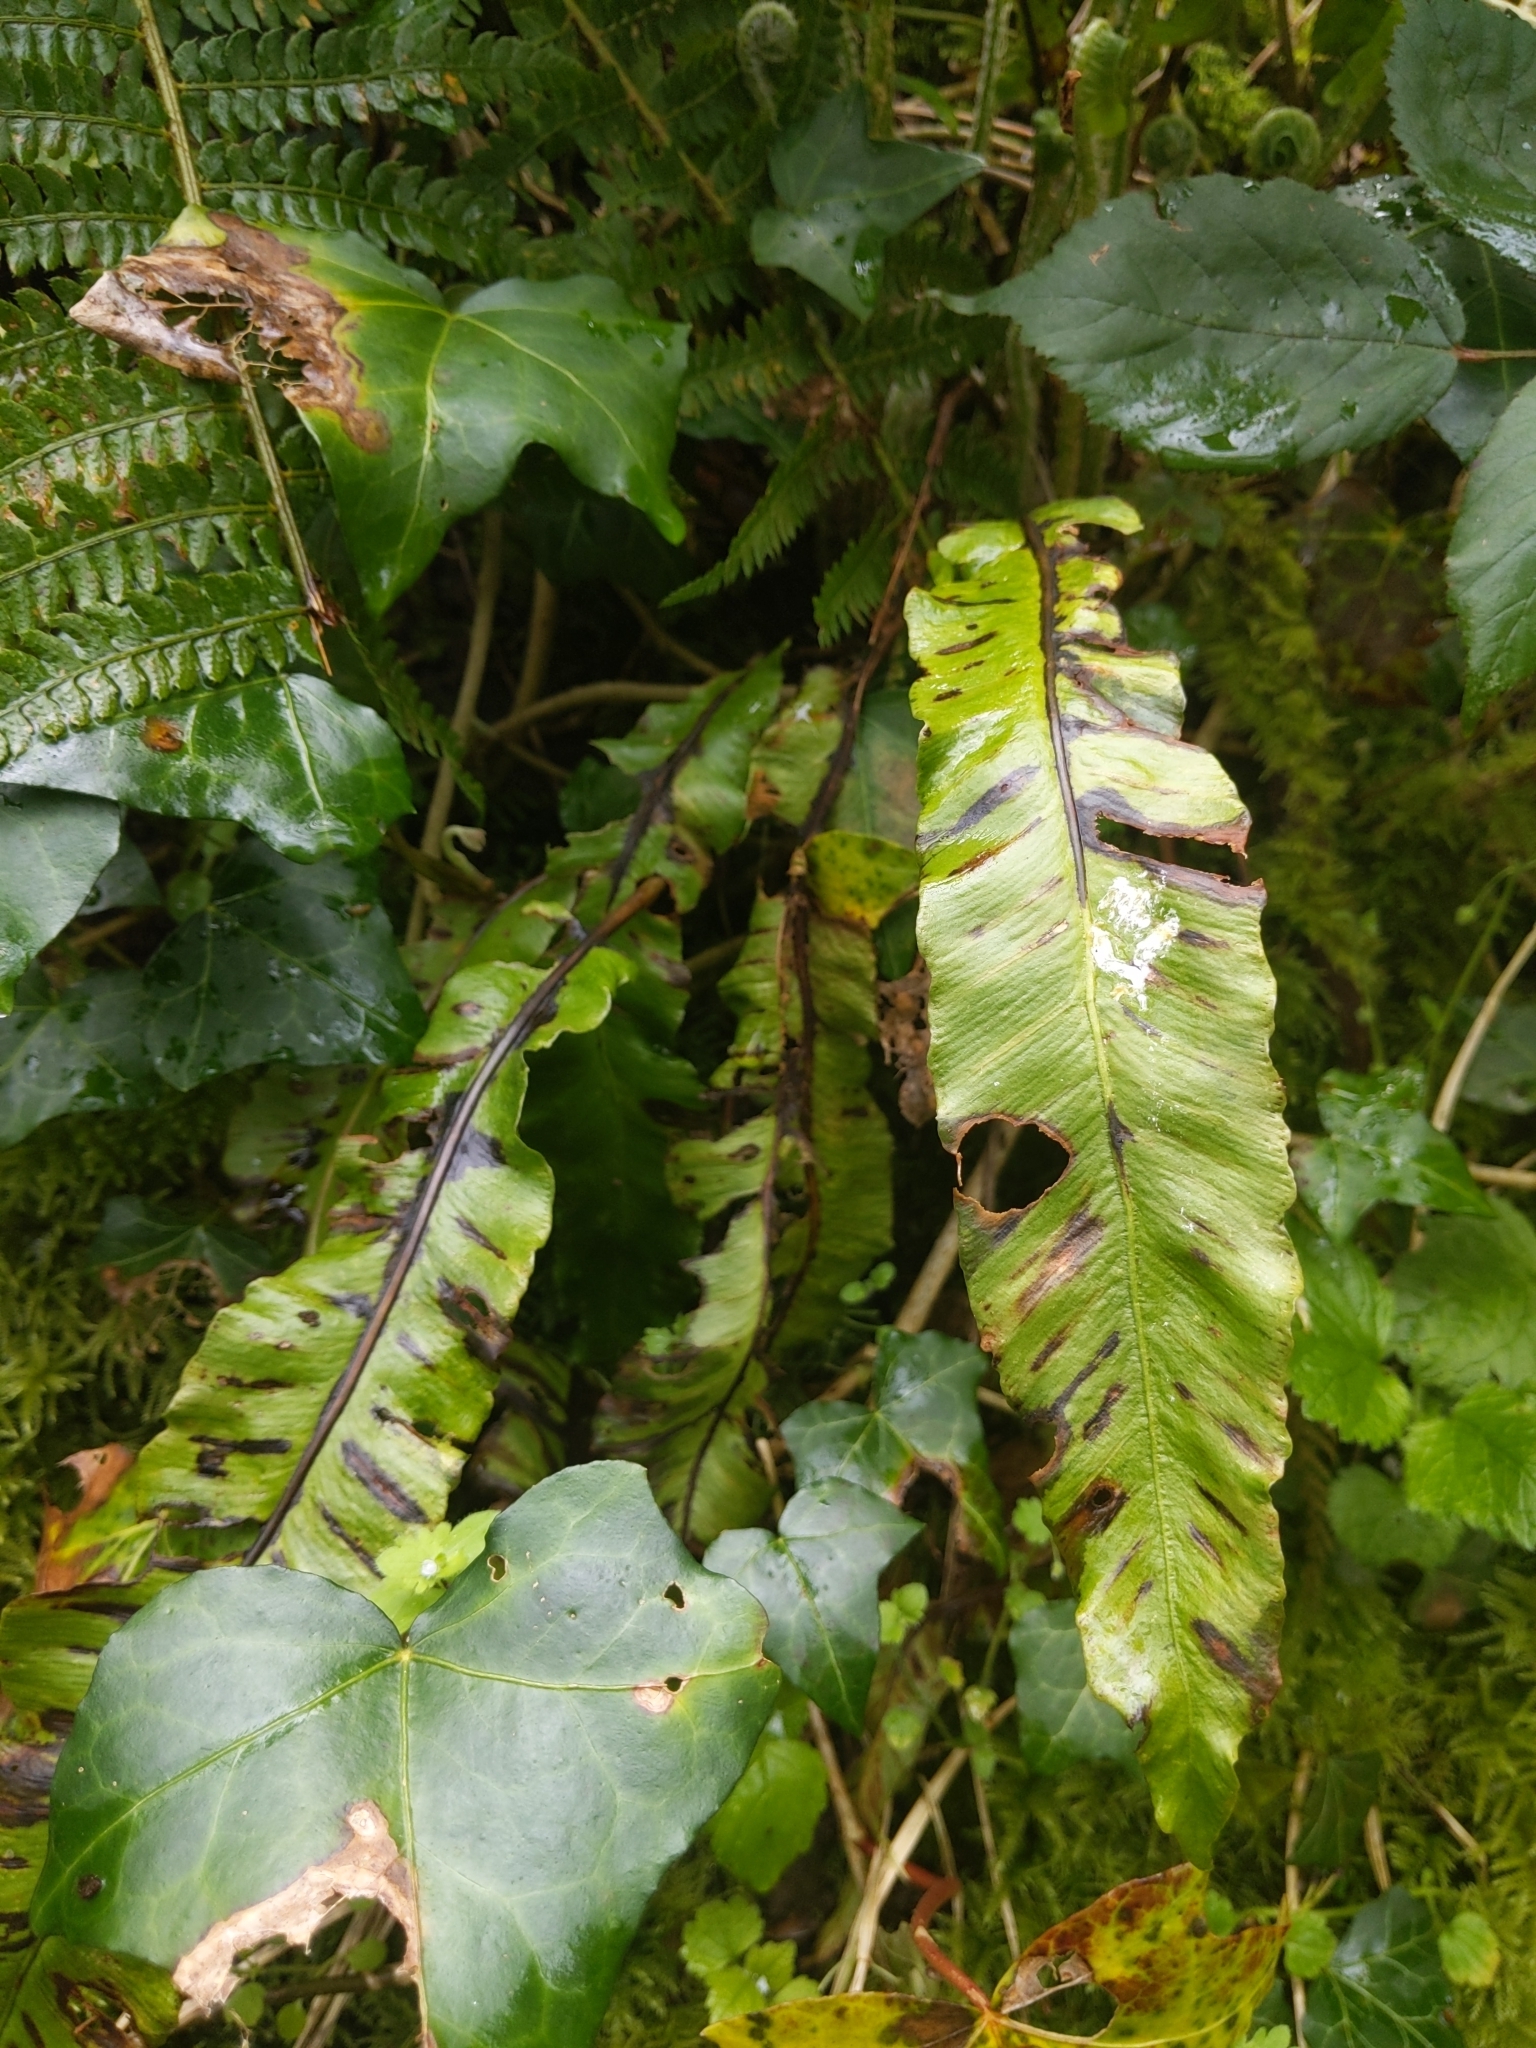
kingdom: Plantae
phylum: Tracheophyta
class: Polypodiopsida
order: Polypodiales
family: Aspleniaceae
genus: Asplenium
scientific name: Asplenium scolopendrium
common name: Hart's-tongue fern
